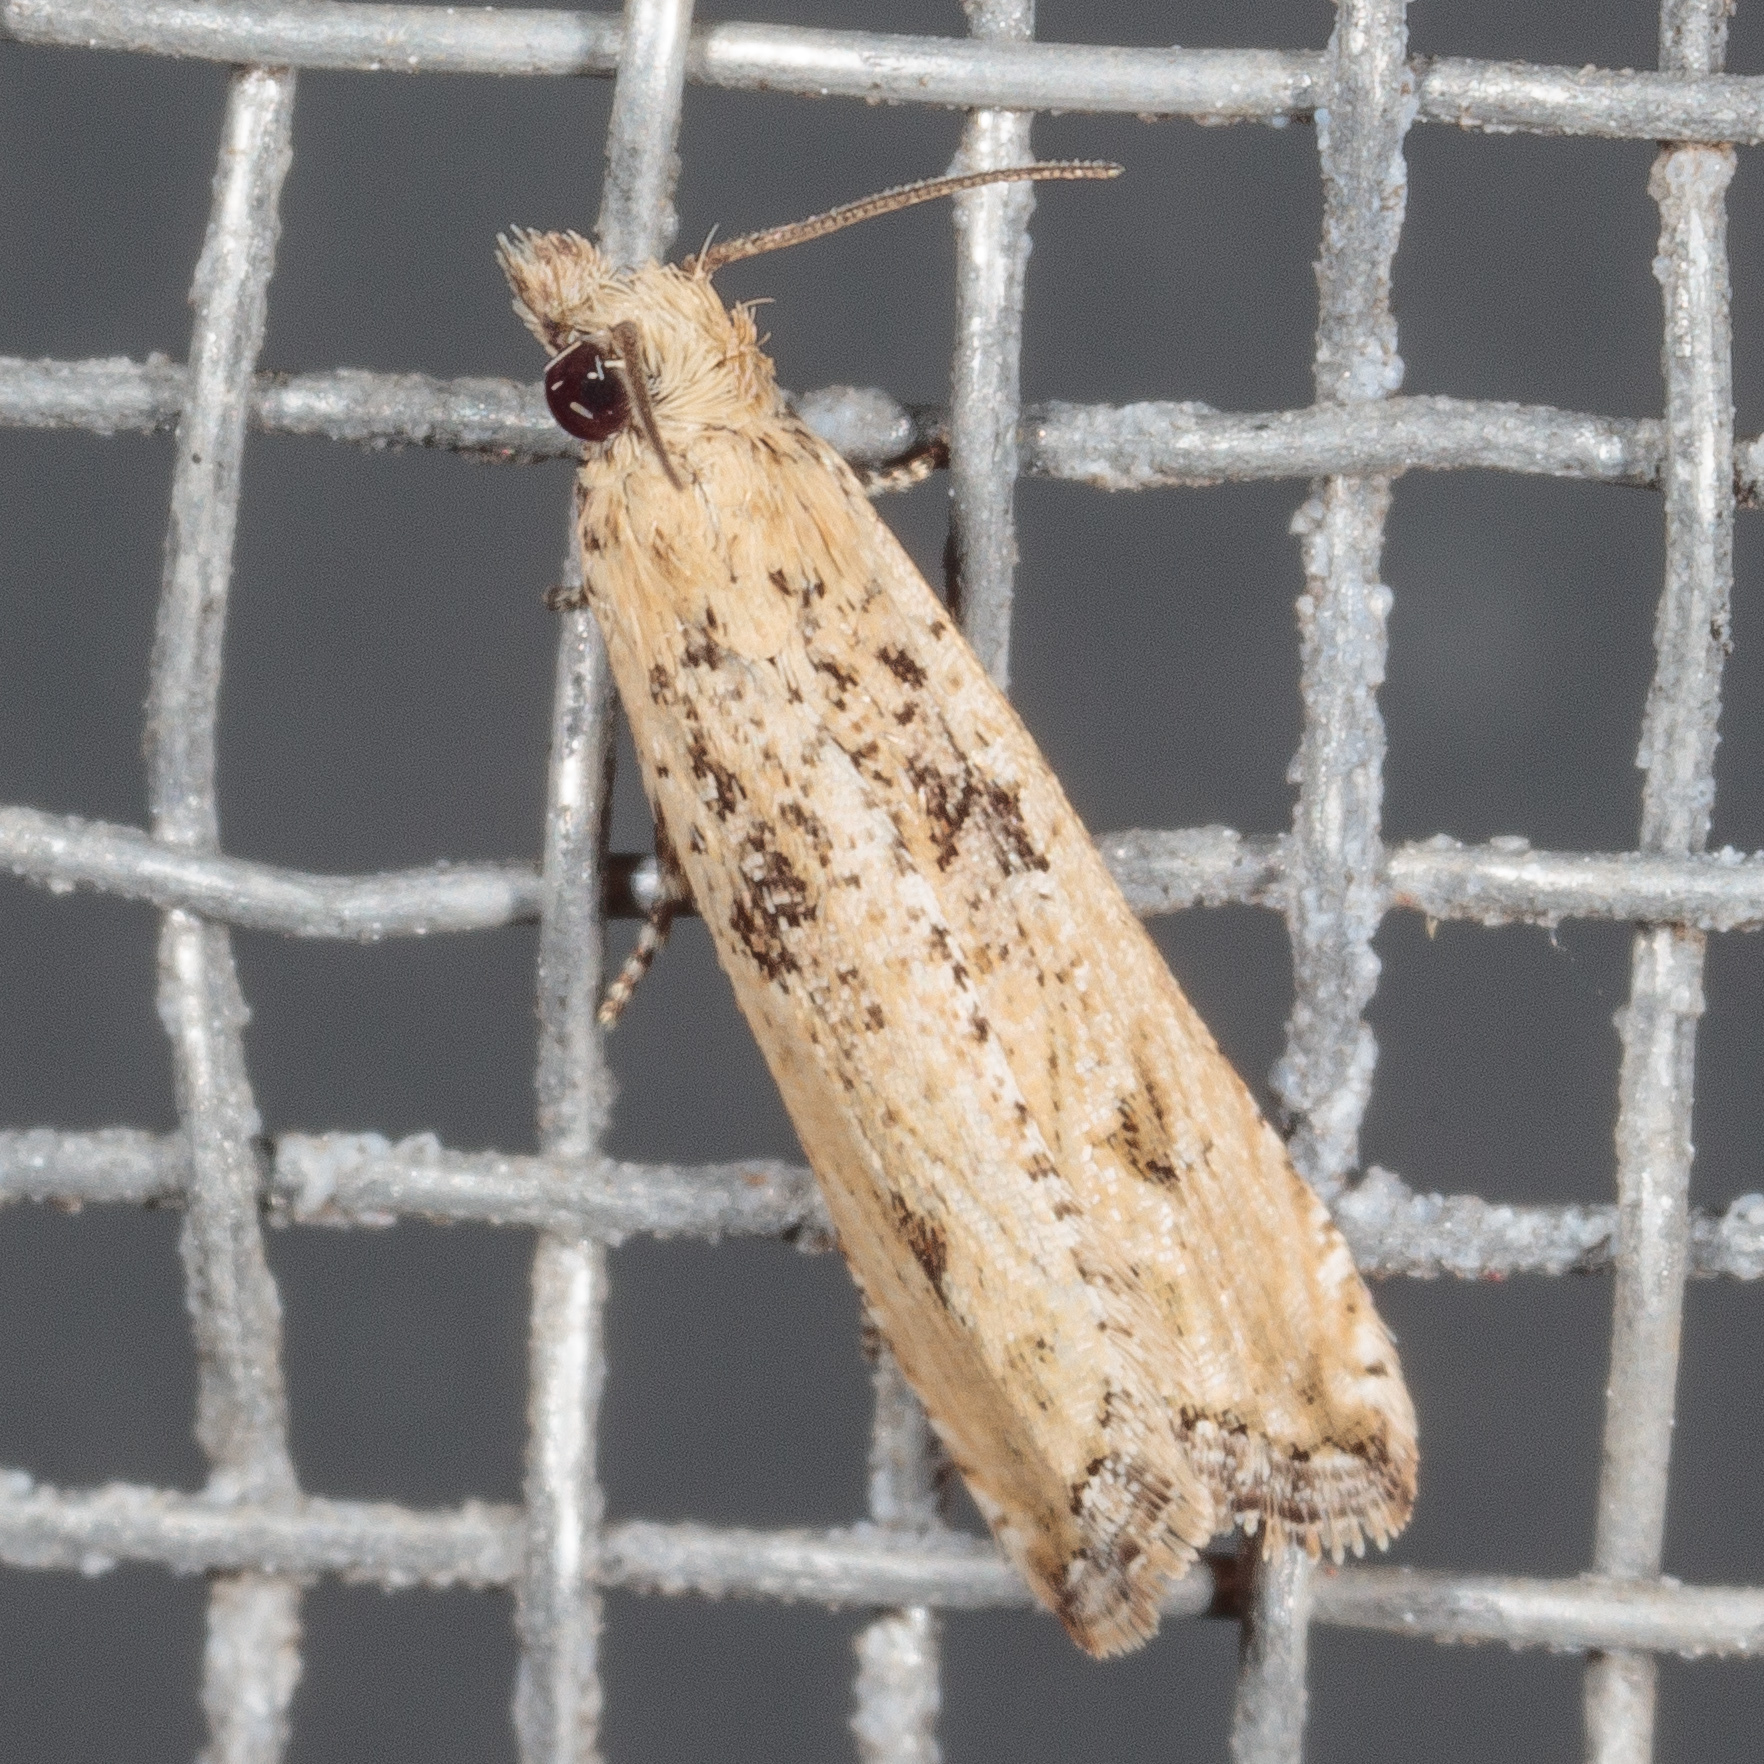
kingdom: Animalia
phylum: Arthropoda
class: Insecta
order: Lepidoptera
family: Tortricidae
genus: Bactra
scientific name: Bactra verutana
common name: Javelin moth
